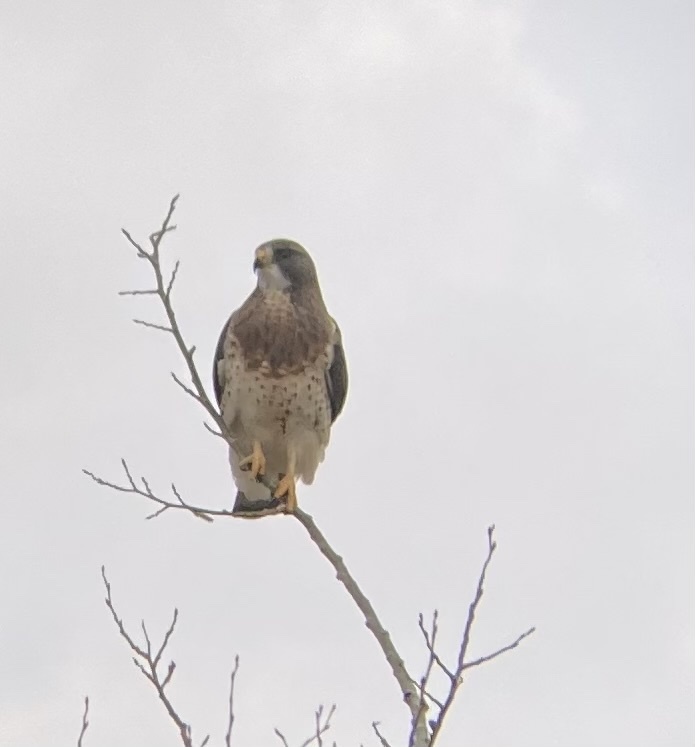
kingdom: Animalia
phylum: Chordata
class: Aves
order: Accipitriformes
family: Accipitridae
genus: Buteo
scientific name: Buteo swainsoni
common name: Swainson's hawk
